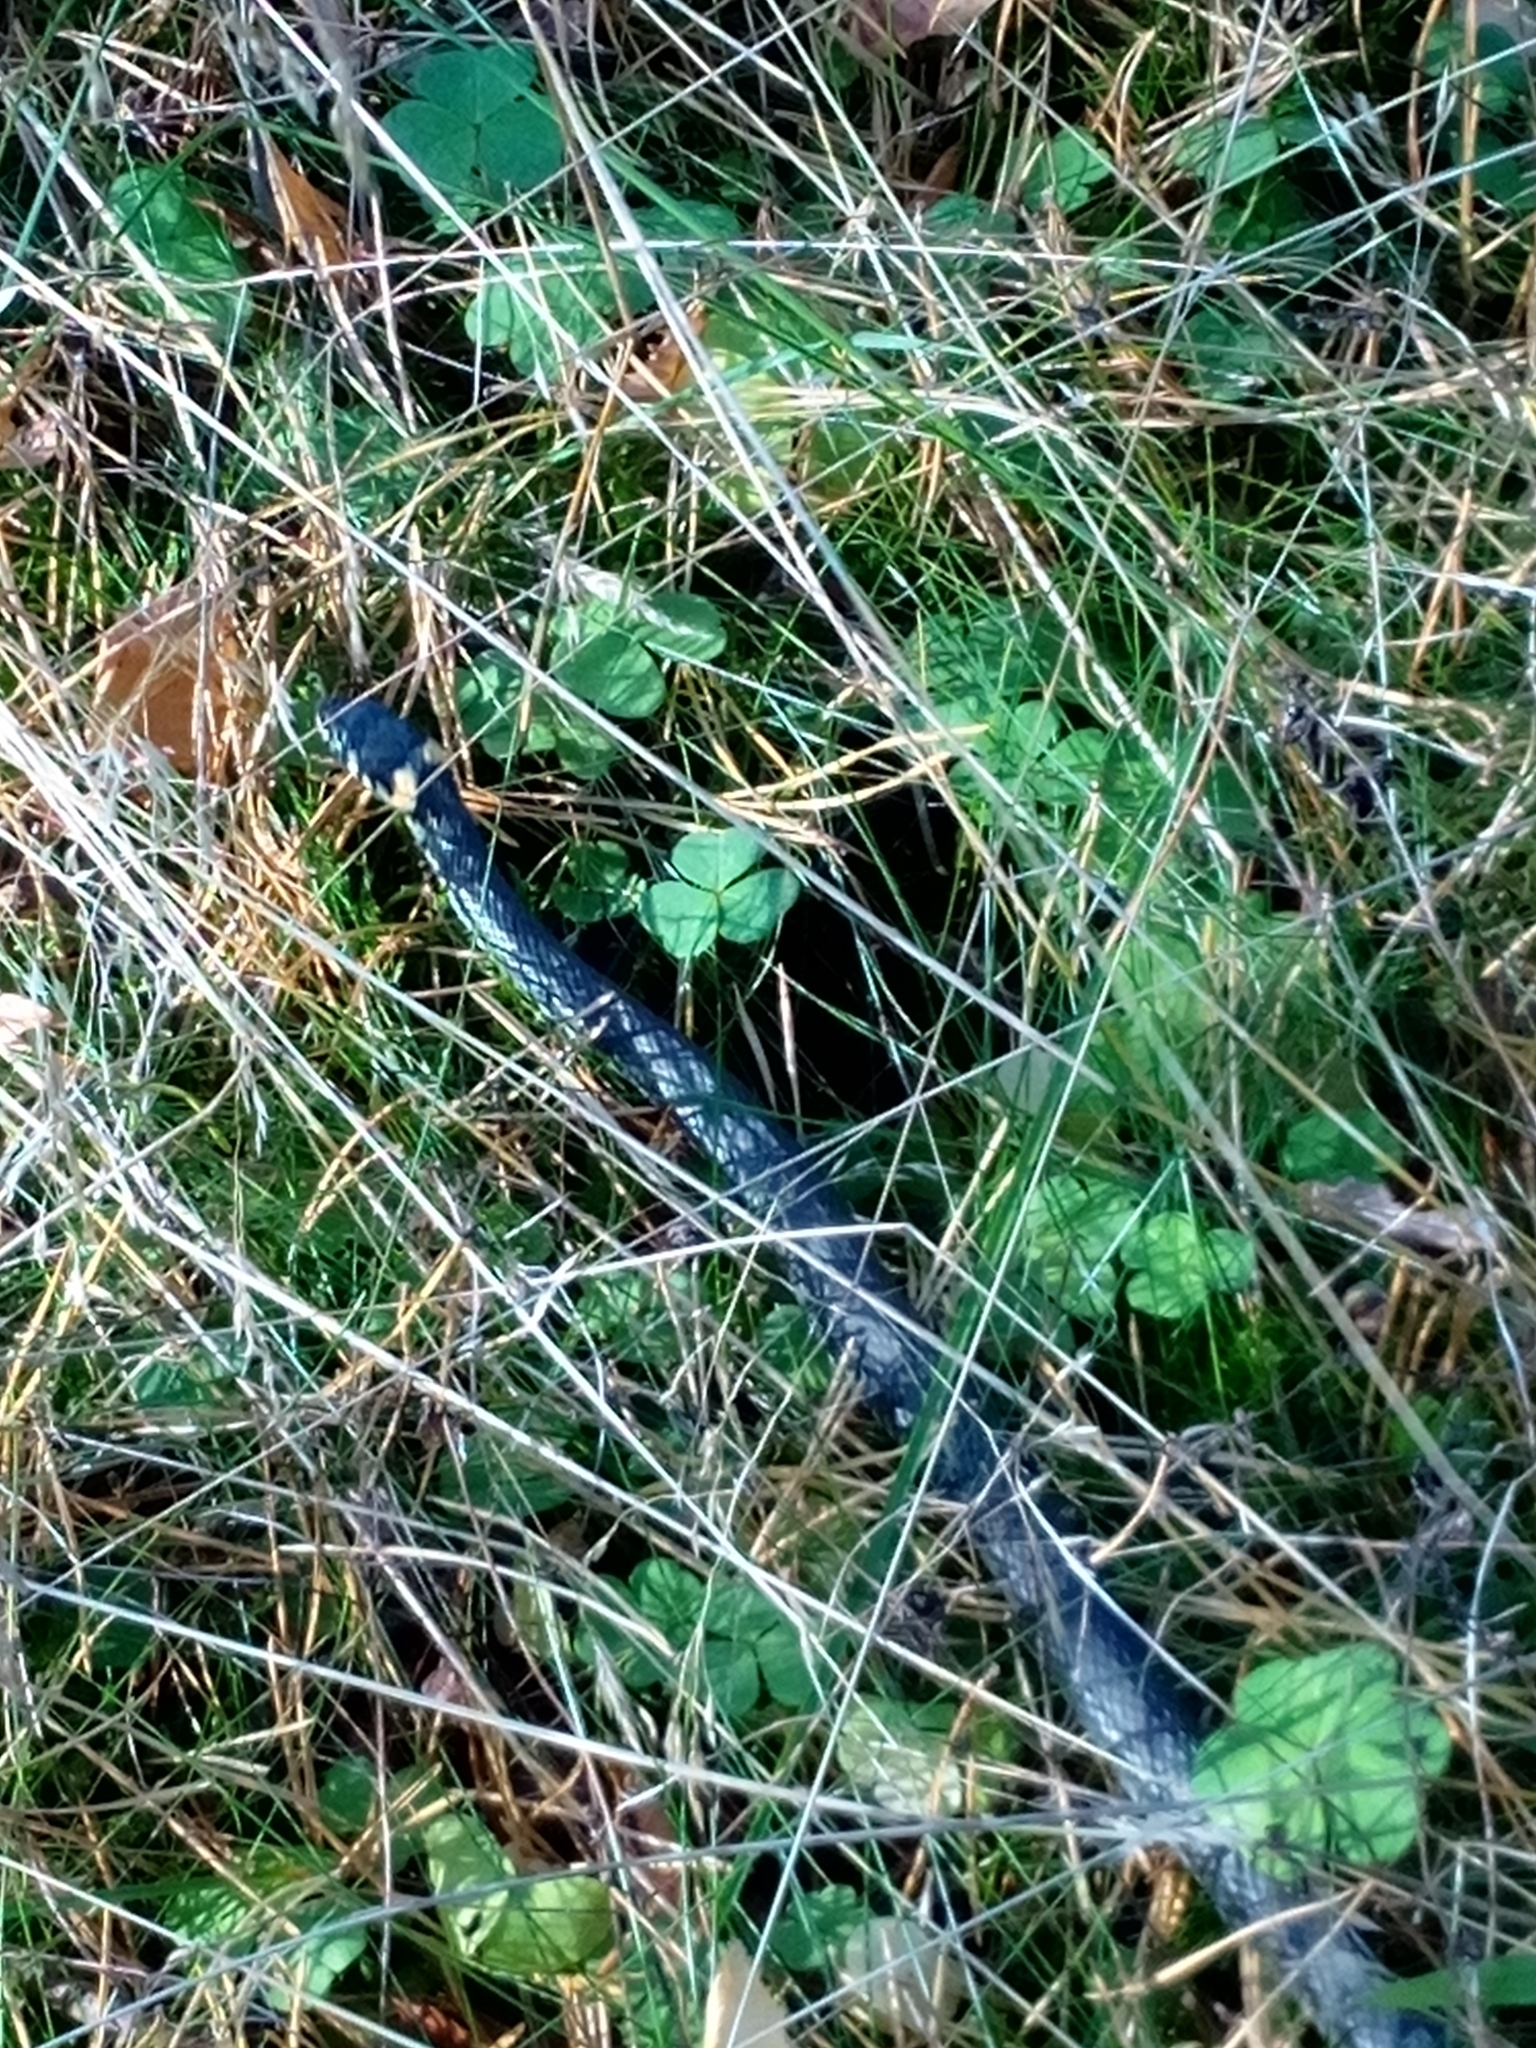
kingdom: Animalia
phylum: Chordata
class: Squamata
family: Colubridae
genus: Natrix
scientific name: Natrix natrix
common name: Grass snake
